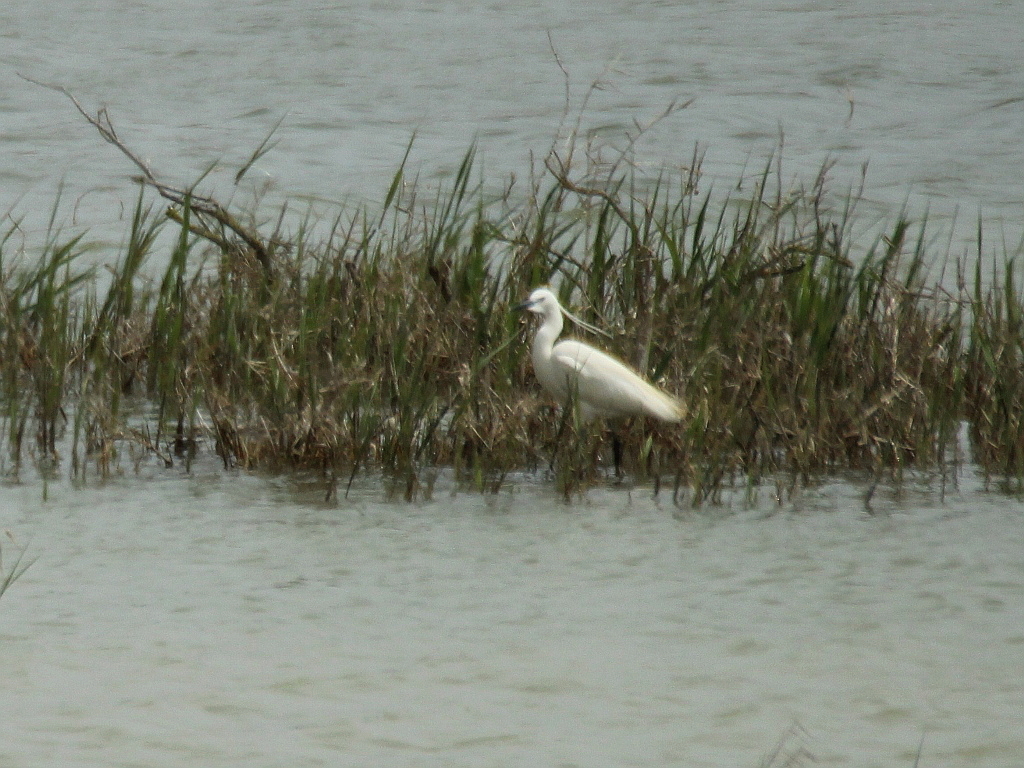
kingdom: Animalia
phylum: Chordata
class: Aves
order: Pelecaniformes
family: Ardeidae
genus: Egretta
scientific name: Egretta garzetta
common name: Little egret
